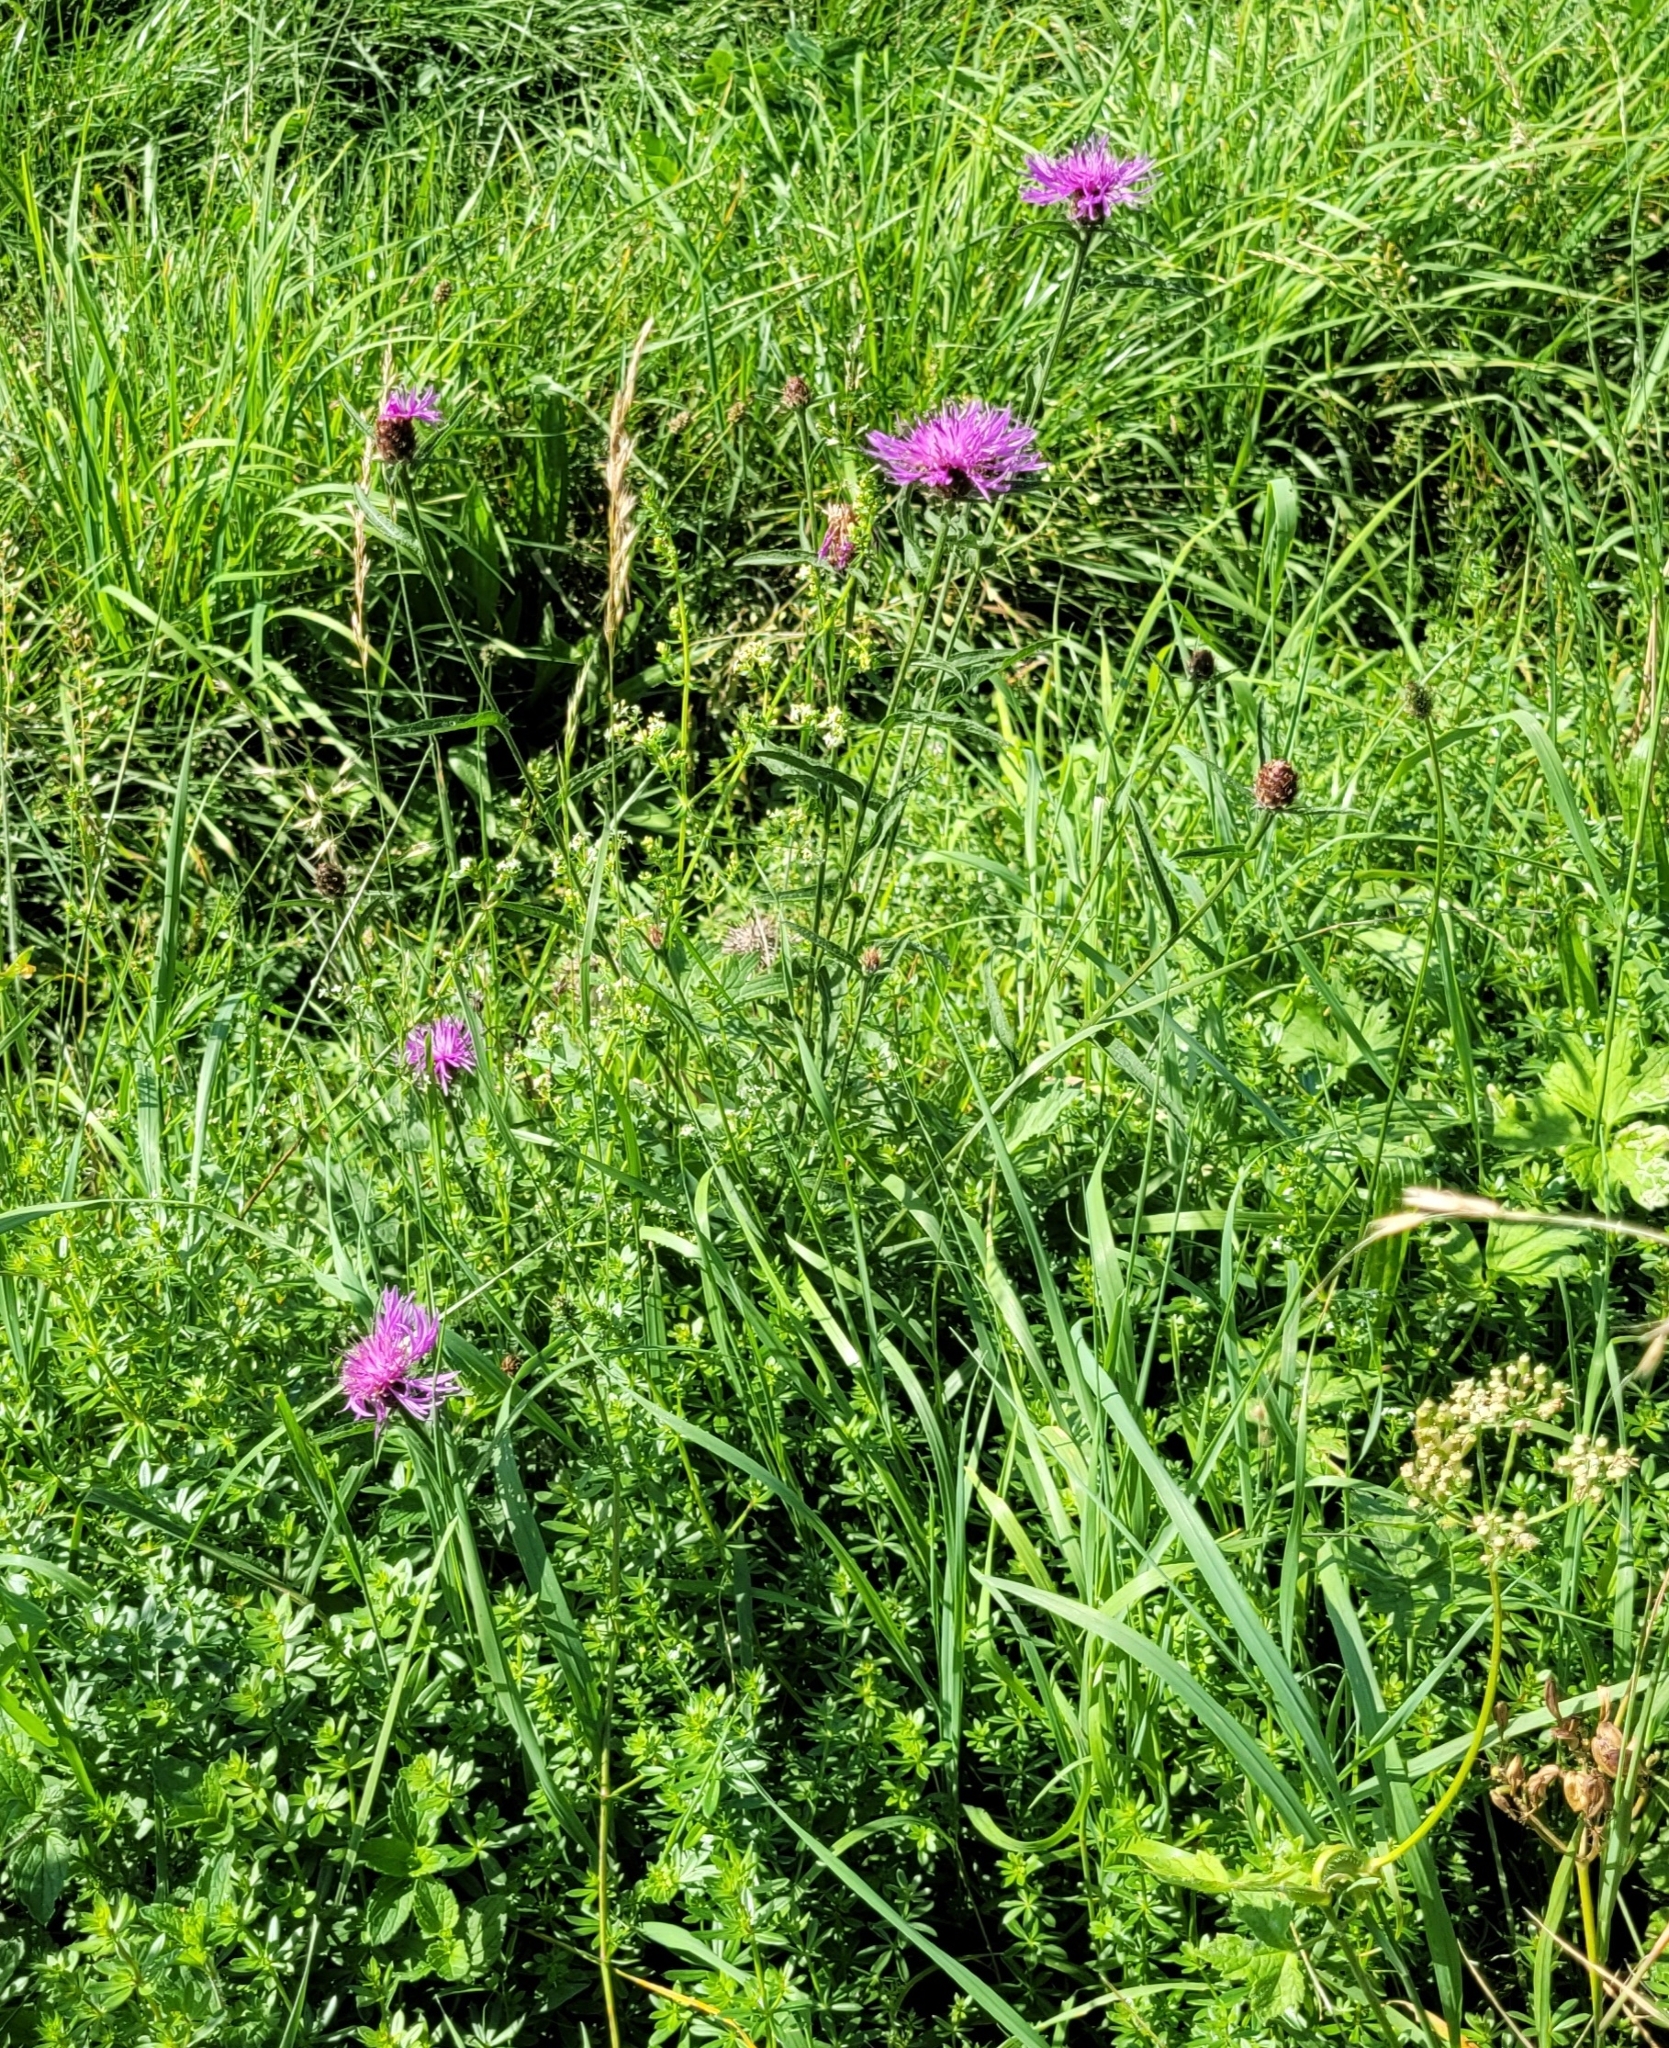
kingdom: Plantae
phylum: Tracheophyta
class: Magnoliopsida
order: Asterales
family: Asteraceae
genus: Centaurea
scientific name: Centaurea jacea
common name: Brown knapweed
